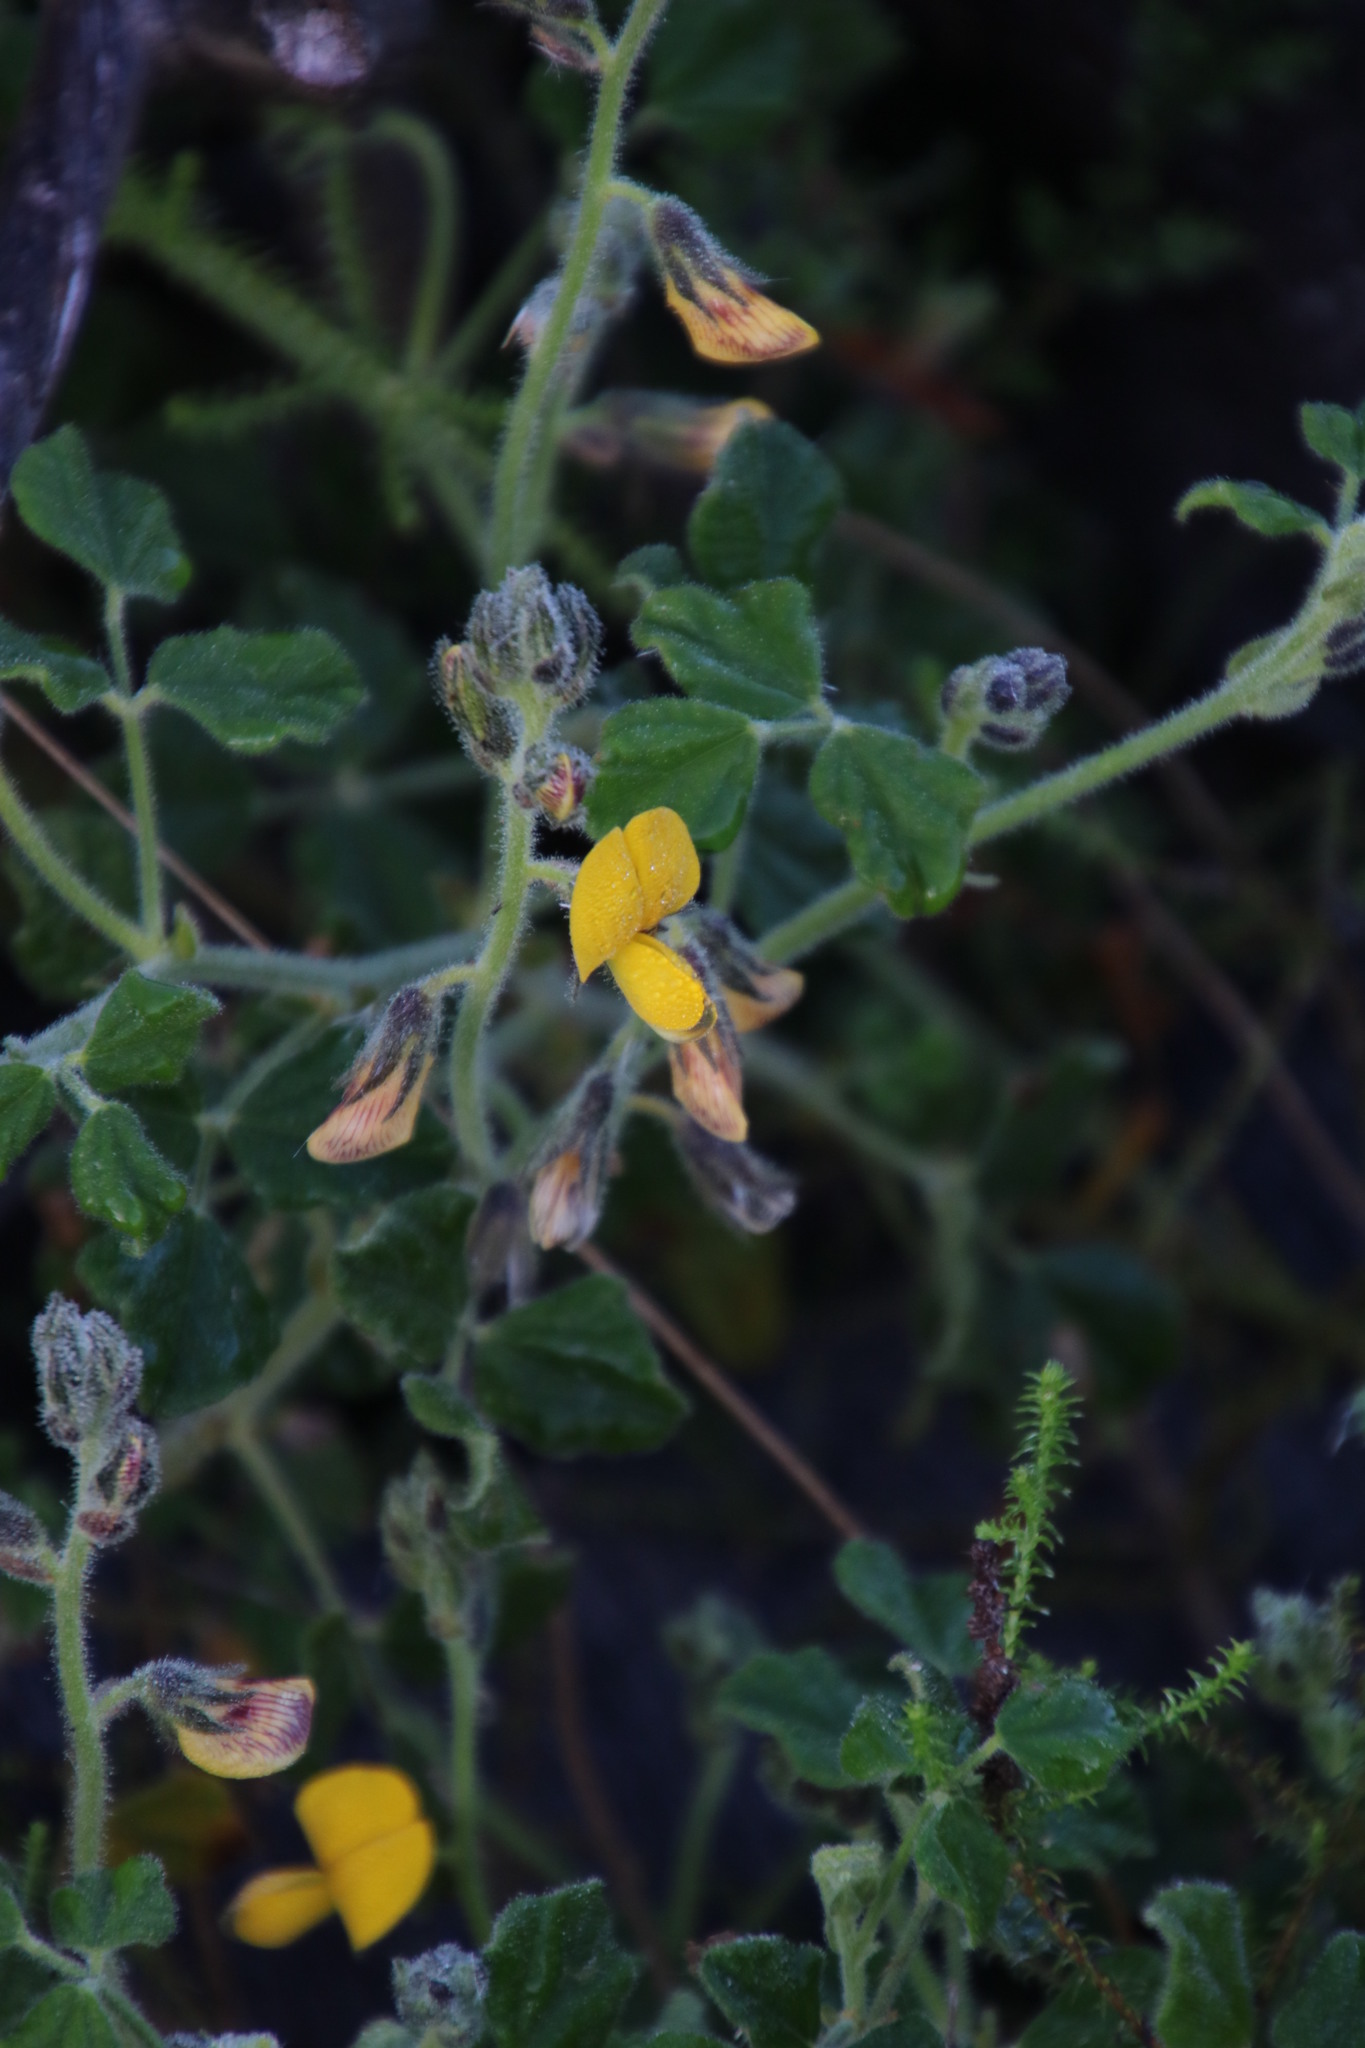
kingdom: Plantae
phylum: Tracheophyta
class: Magnoliopsida
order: Fabales
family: Fabaceae
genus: Bolusafra
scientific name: Bolusafra bituminosa
